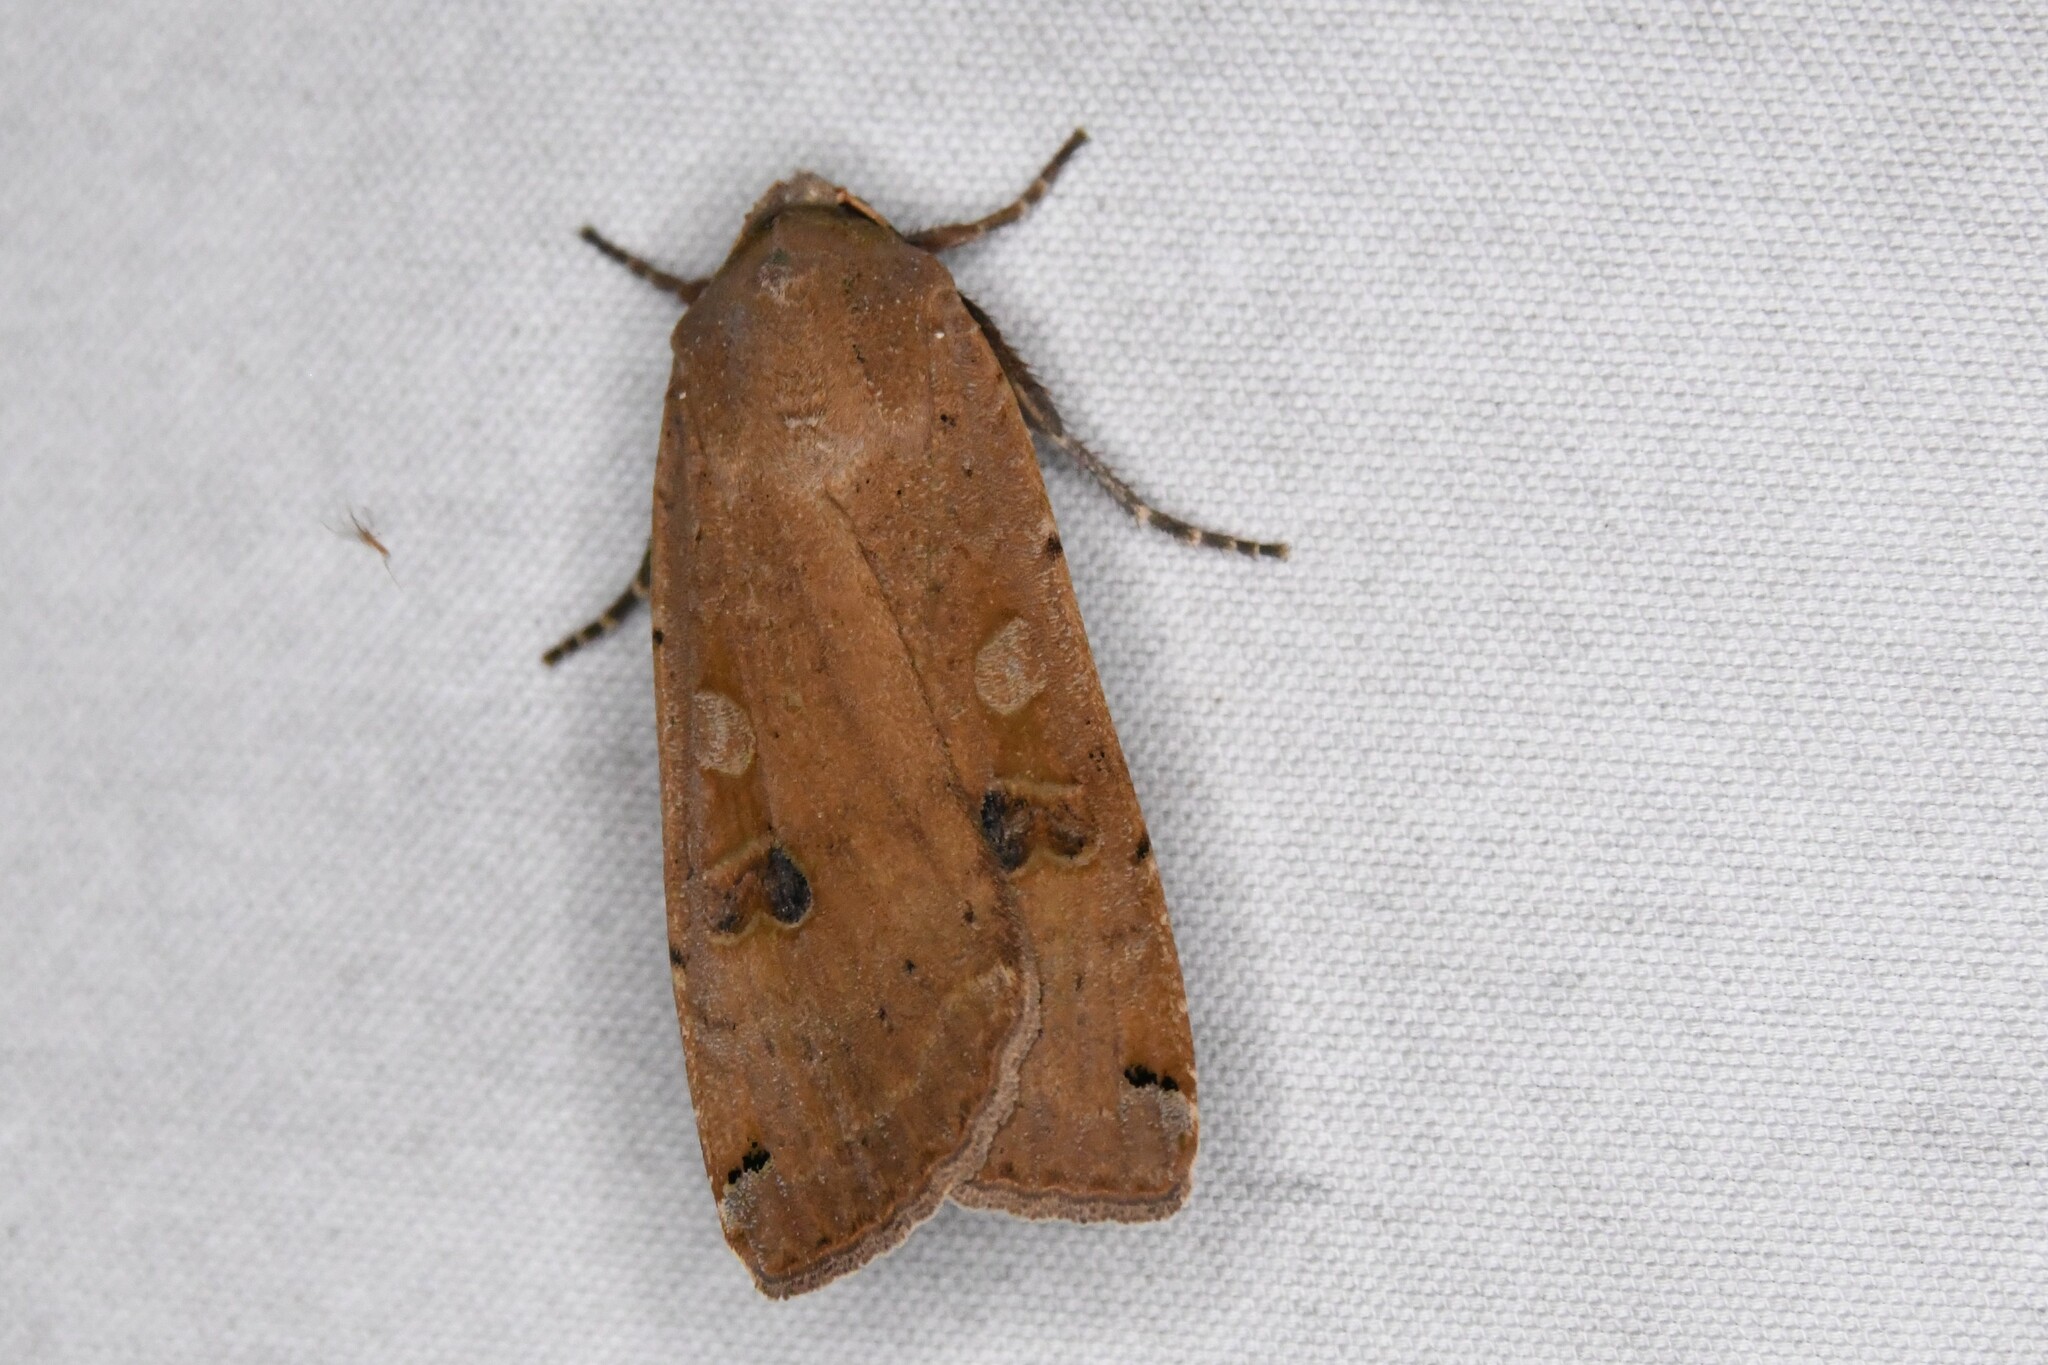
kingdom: Animalia
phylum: Arthropoda
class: Insecta
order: Lepidoptera
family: Noctuidae
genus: Noctua
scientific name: Noctua pronuba
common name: Large yellow underwing
